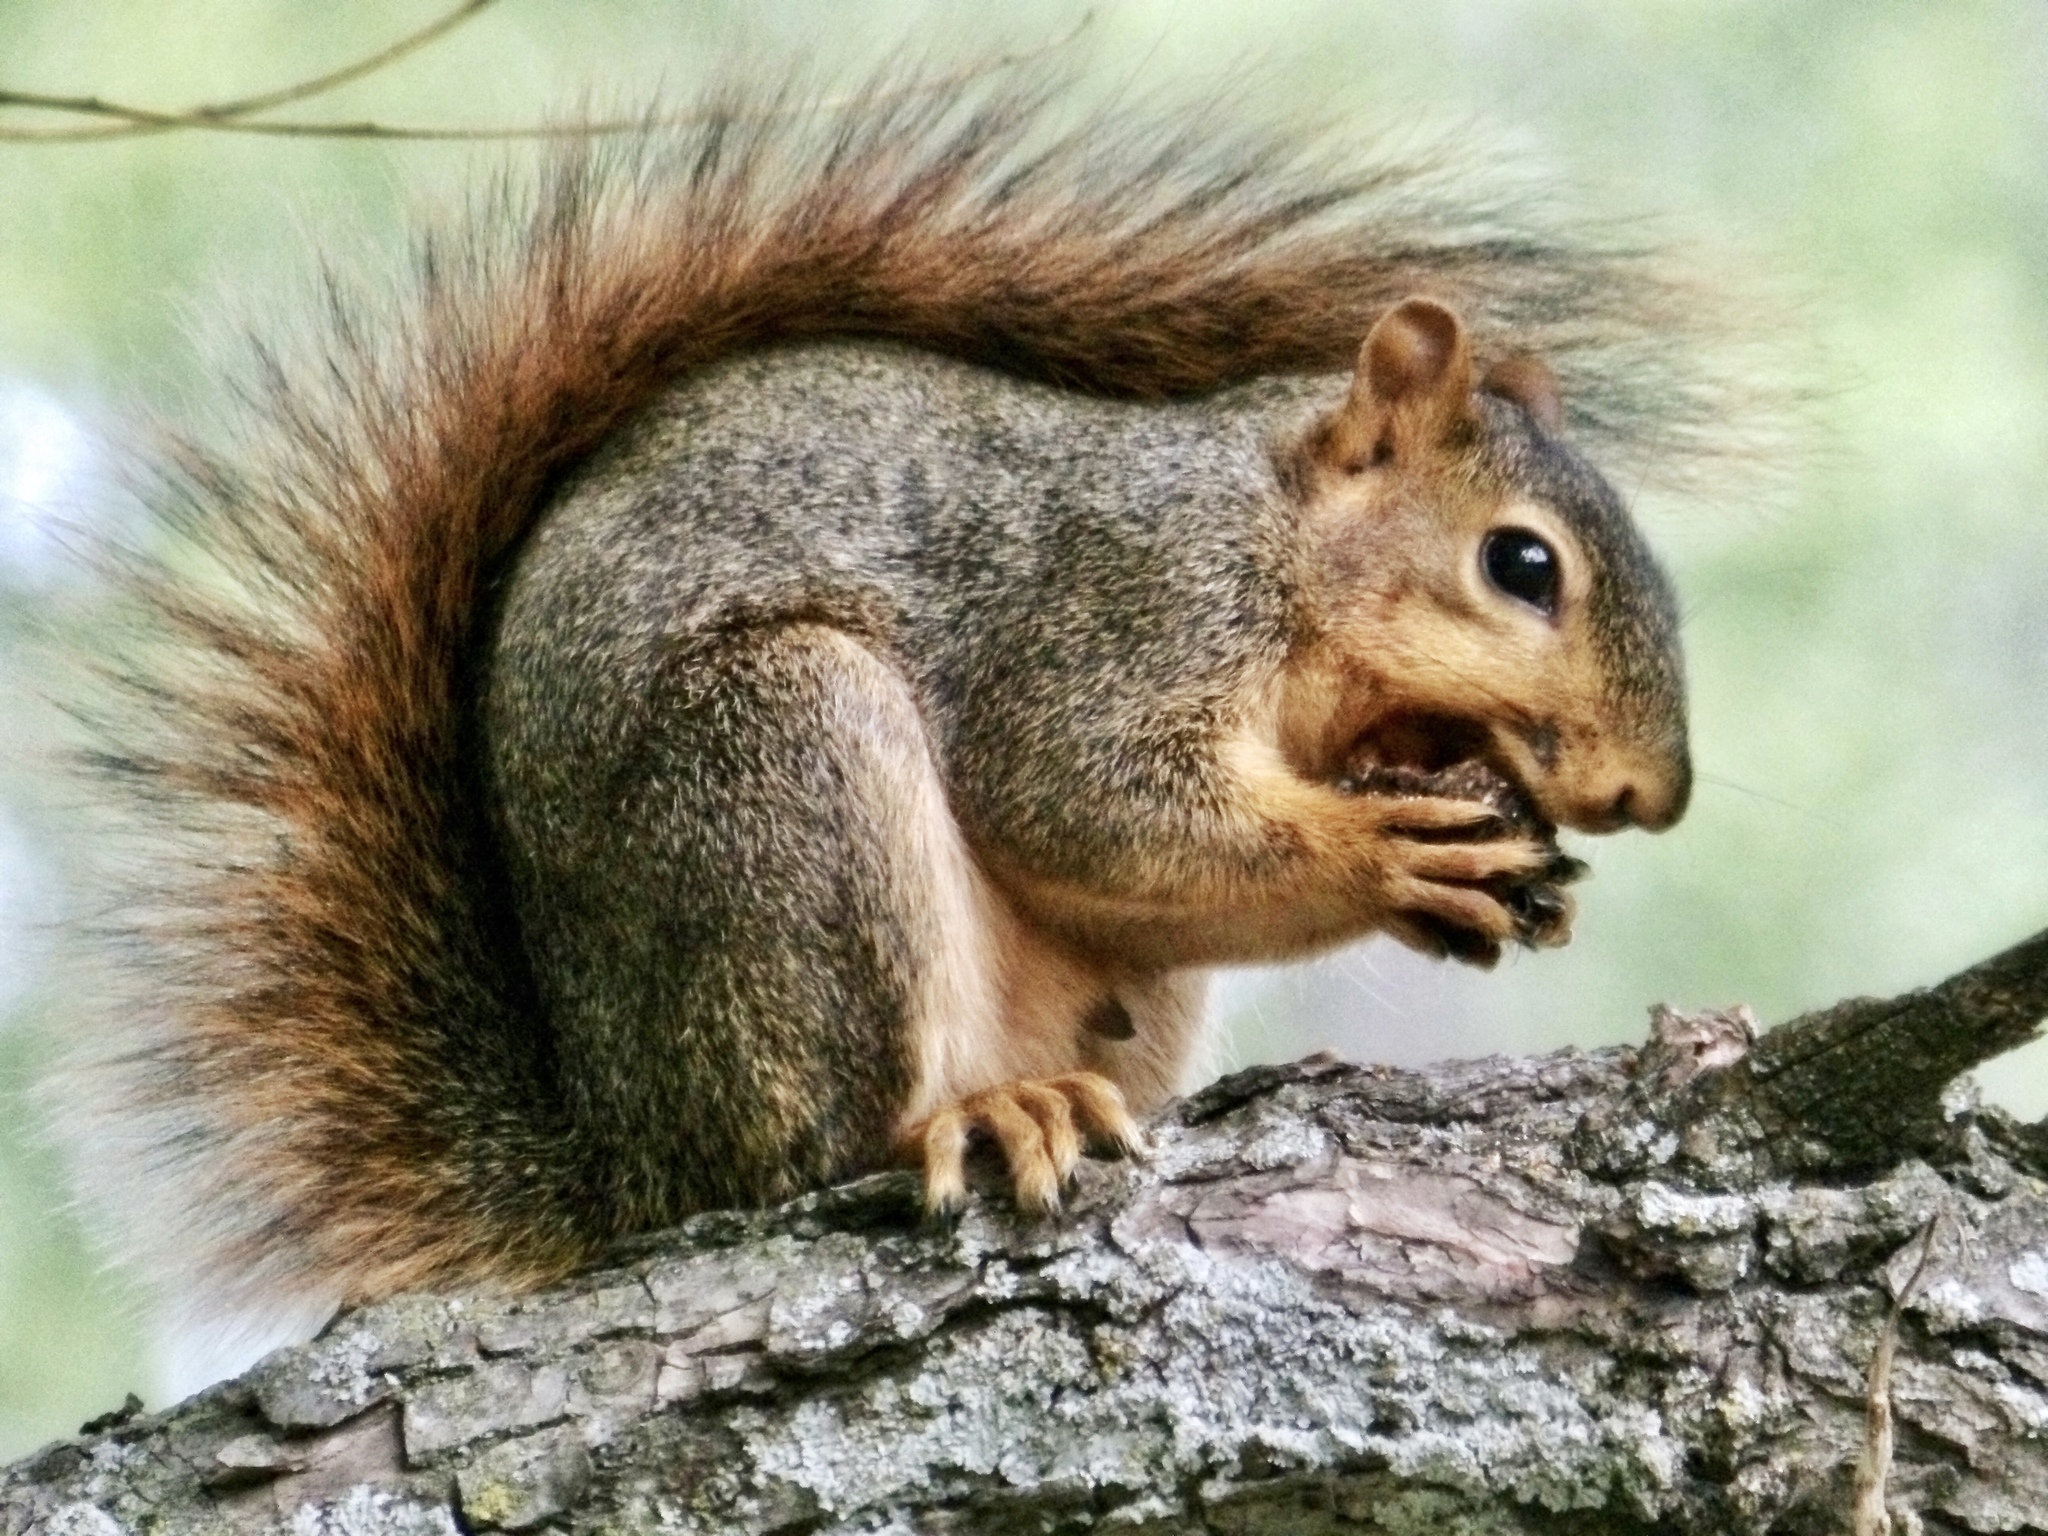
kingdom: Animalia
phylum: Chordata
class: Mammalia
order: Rodentia
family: Sciuridae
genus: Sciurus
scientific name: Sciurus niger
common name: Fox squirrel
